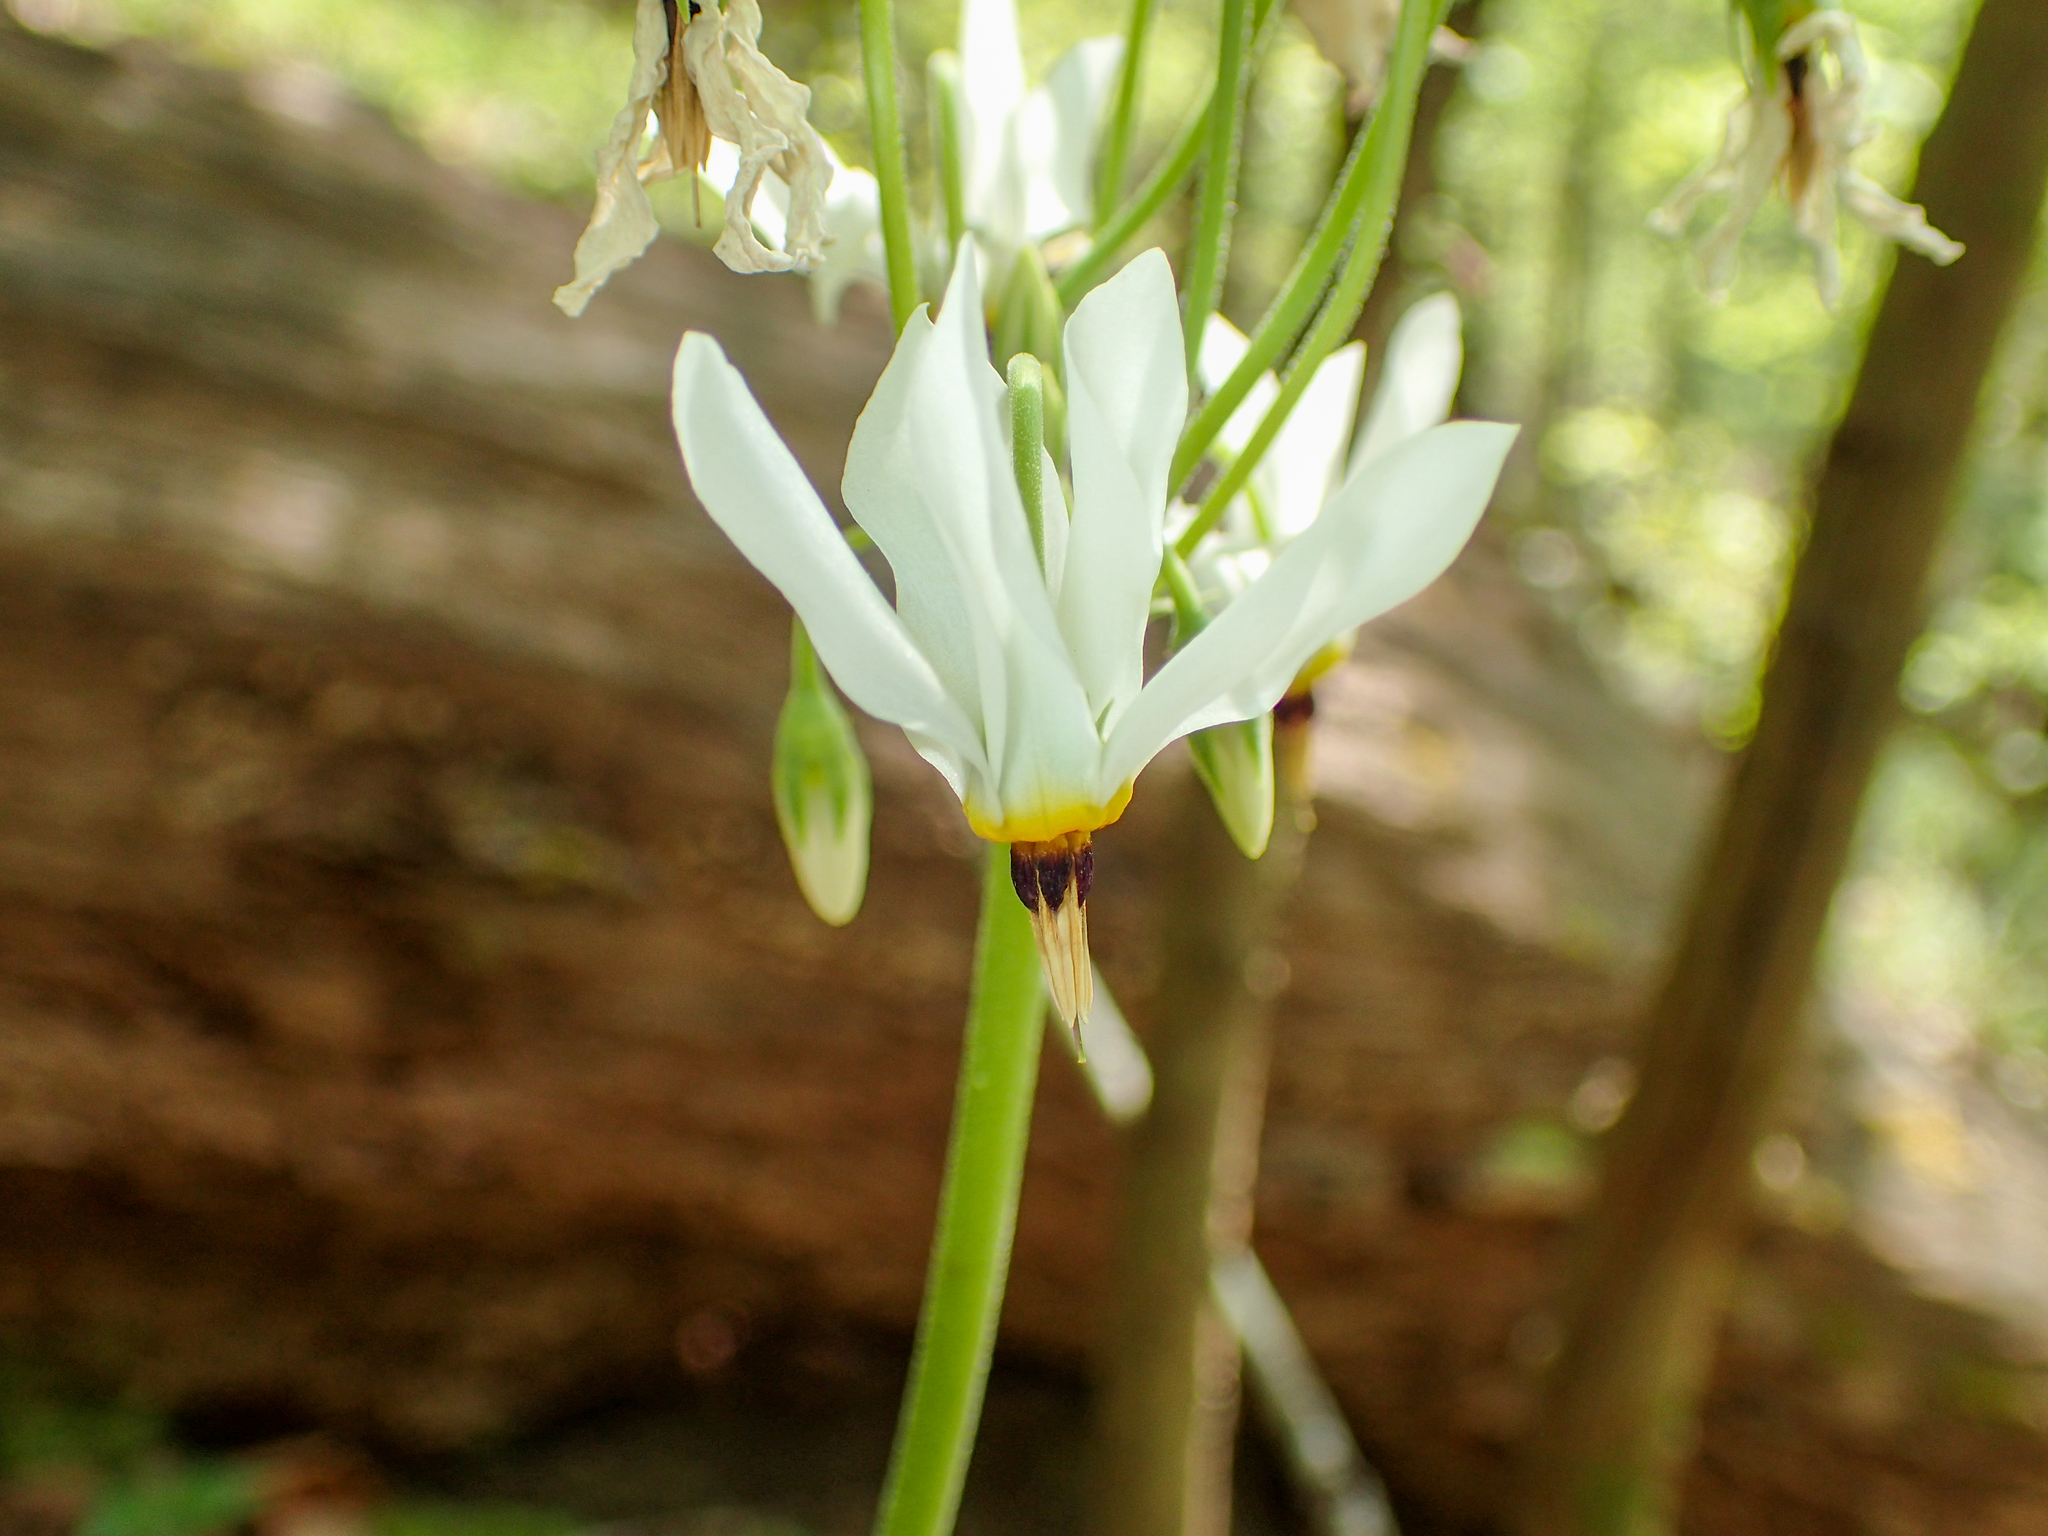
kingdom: Plantae
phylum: Tracheophyta
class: Magnoliopsida
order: Ericales
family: Primulaceae
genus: Dodecatheon
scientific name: Dodecatheon meadia
